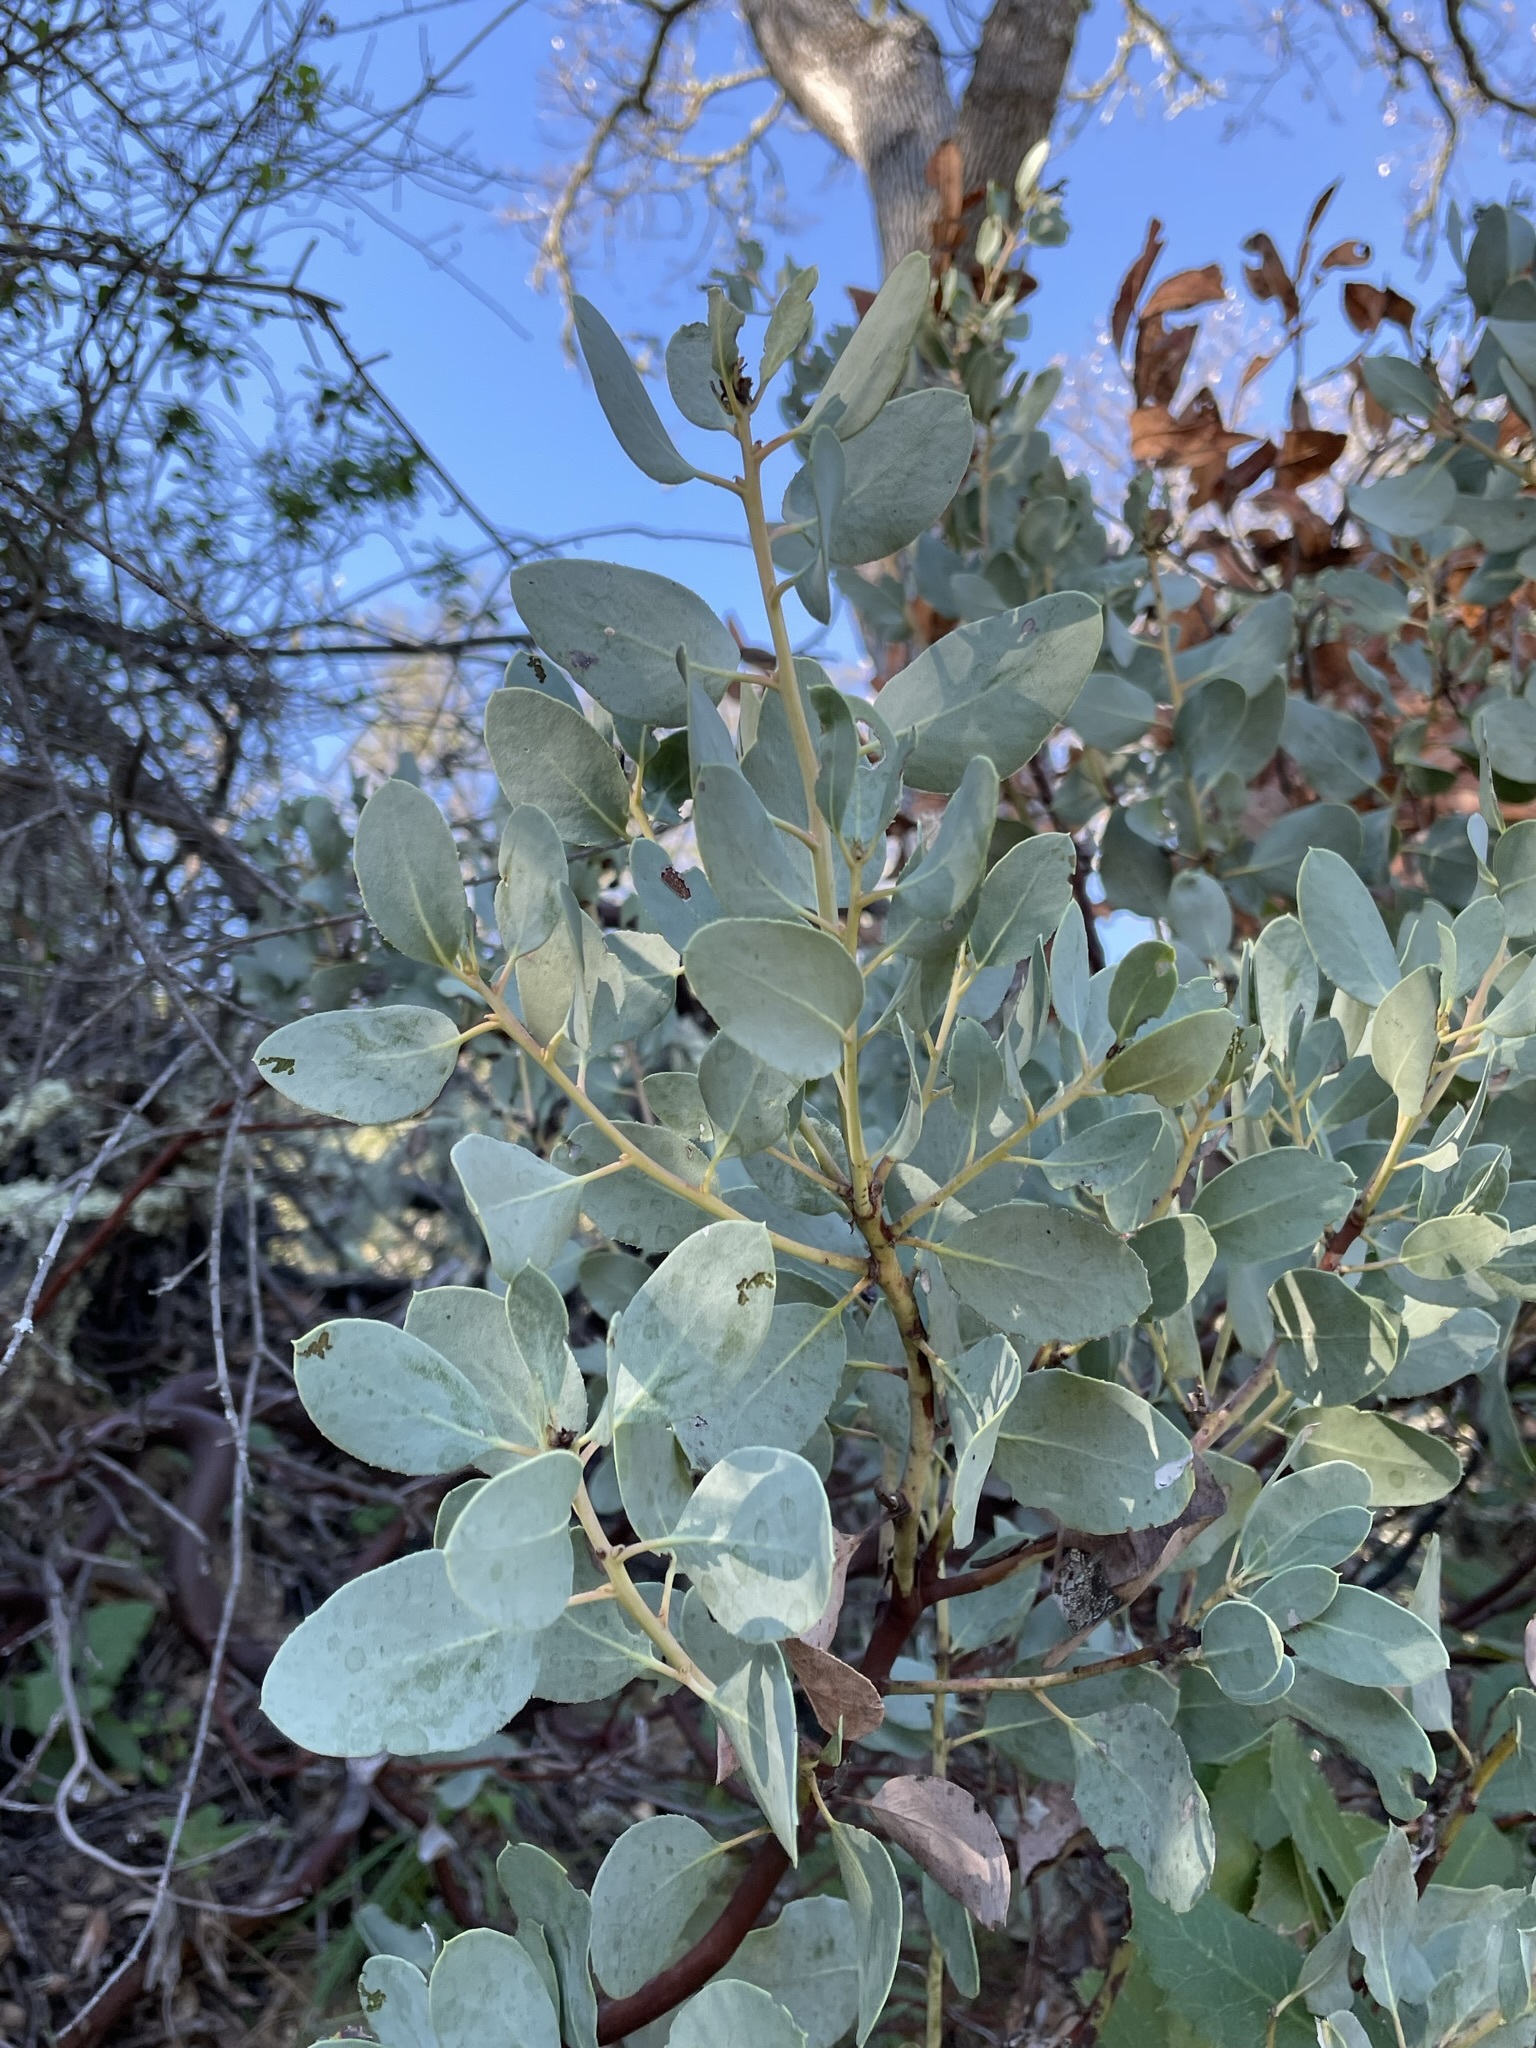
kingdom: Plantae
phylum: Tracheophyta
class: Magnoliopsida
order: Ericales
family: Ericaceae
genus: Arctostaphylos
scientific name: Arctostaphylos glauca
